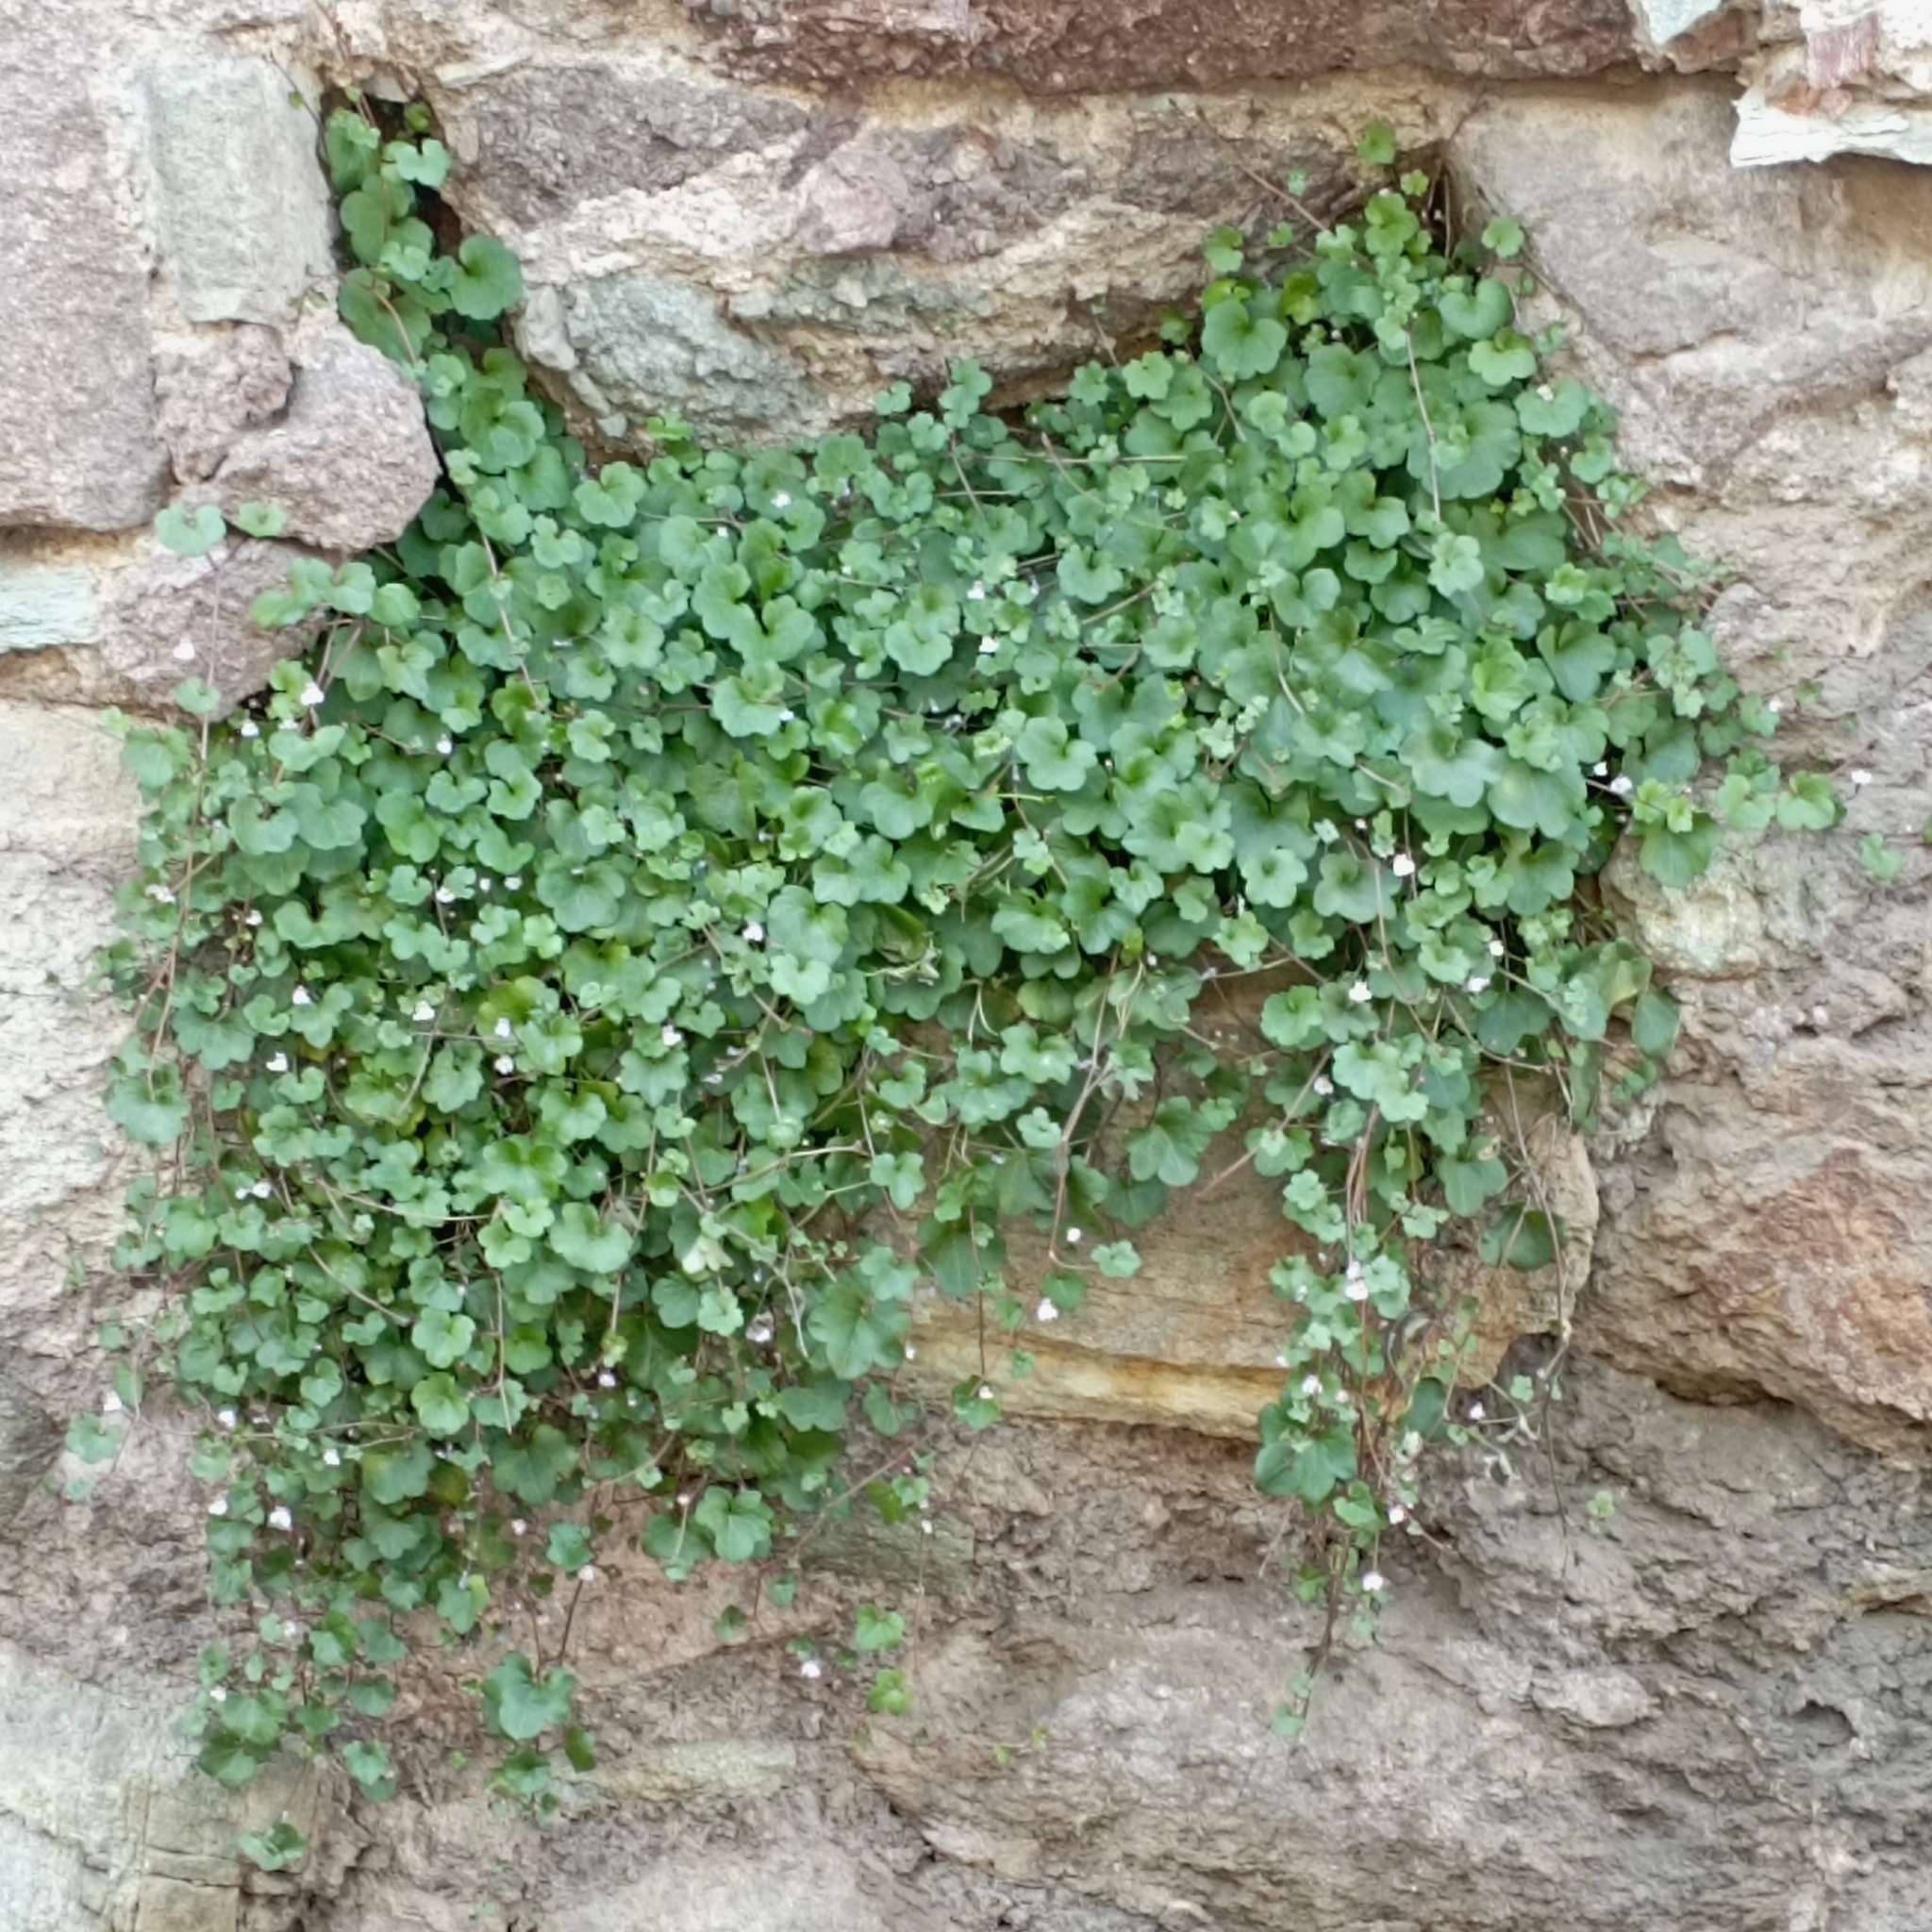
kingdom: Plantae
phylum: Tracheophyta
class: Magnoliopsida
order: Lamiales
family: Plantaginaceae
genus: Cymbalaria
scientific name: Cymbalaria muralis
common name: Ivy-leaved toadflax
